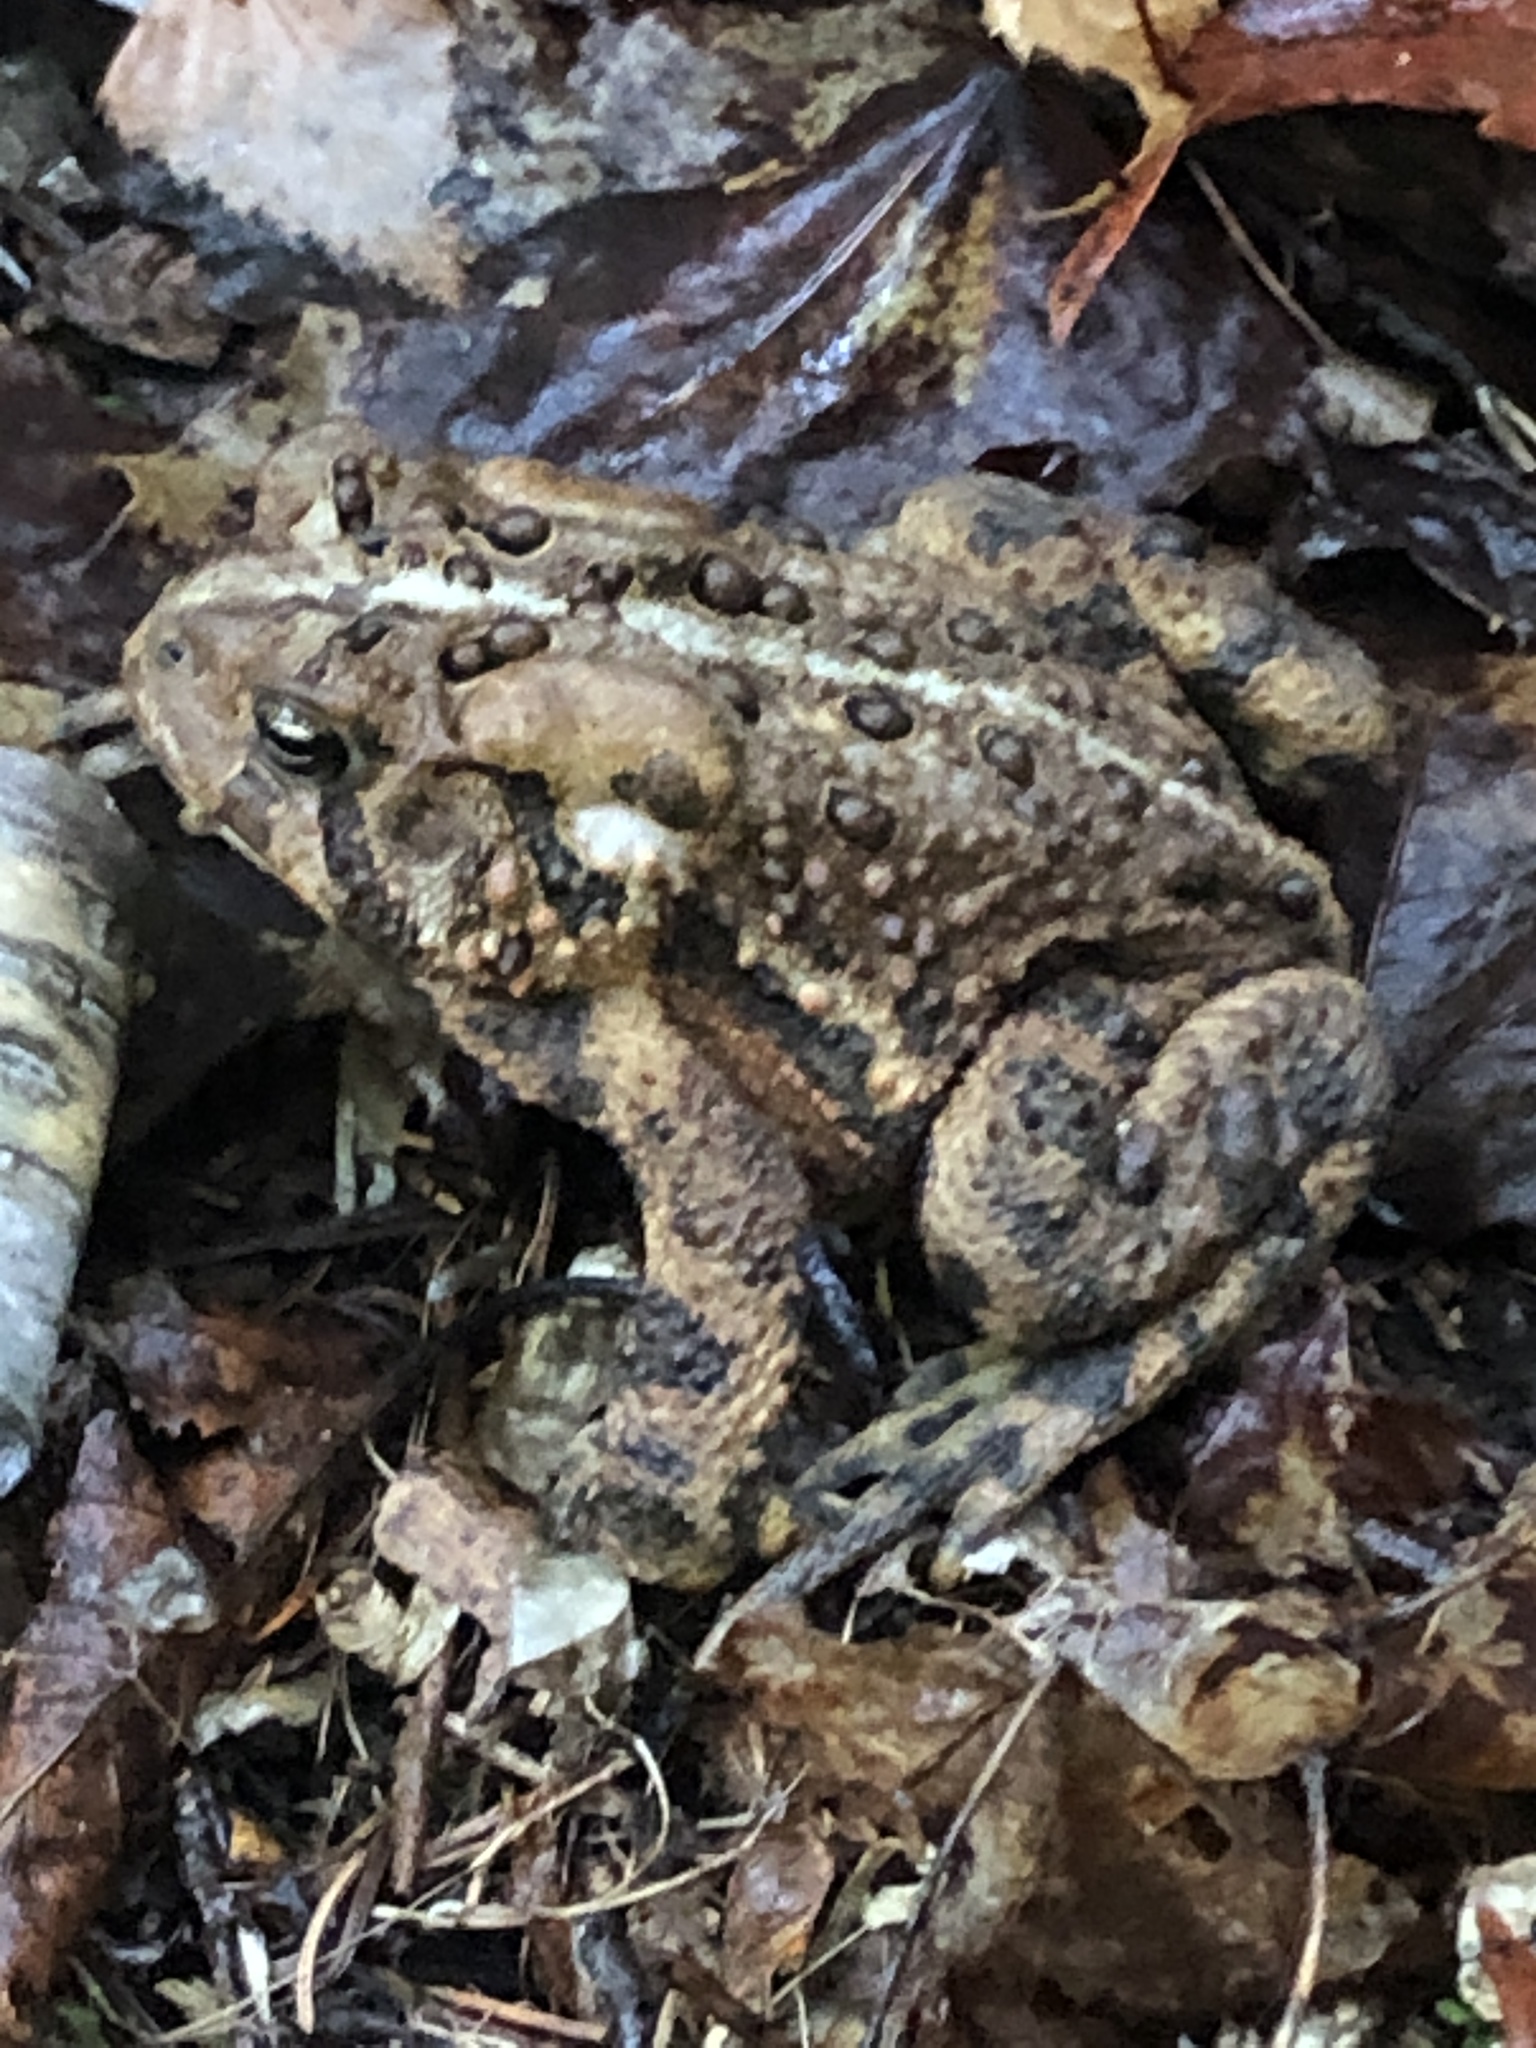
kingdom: Animalia
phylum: Chordata
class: Amphibia
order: Anura
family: Bufonidae
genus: Anaxyrus
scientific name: Anaxyrus americanus
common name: American toad
